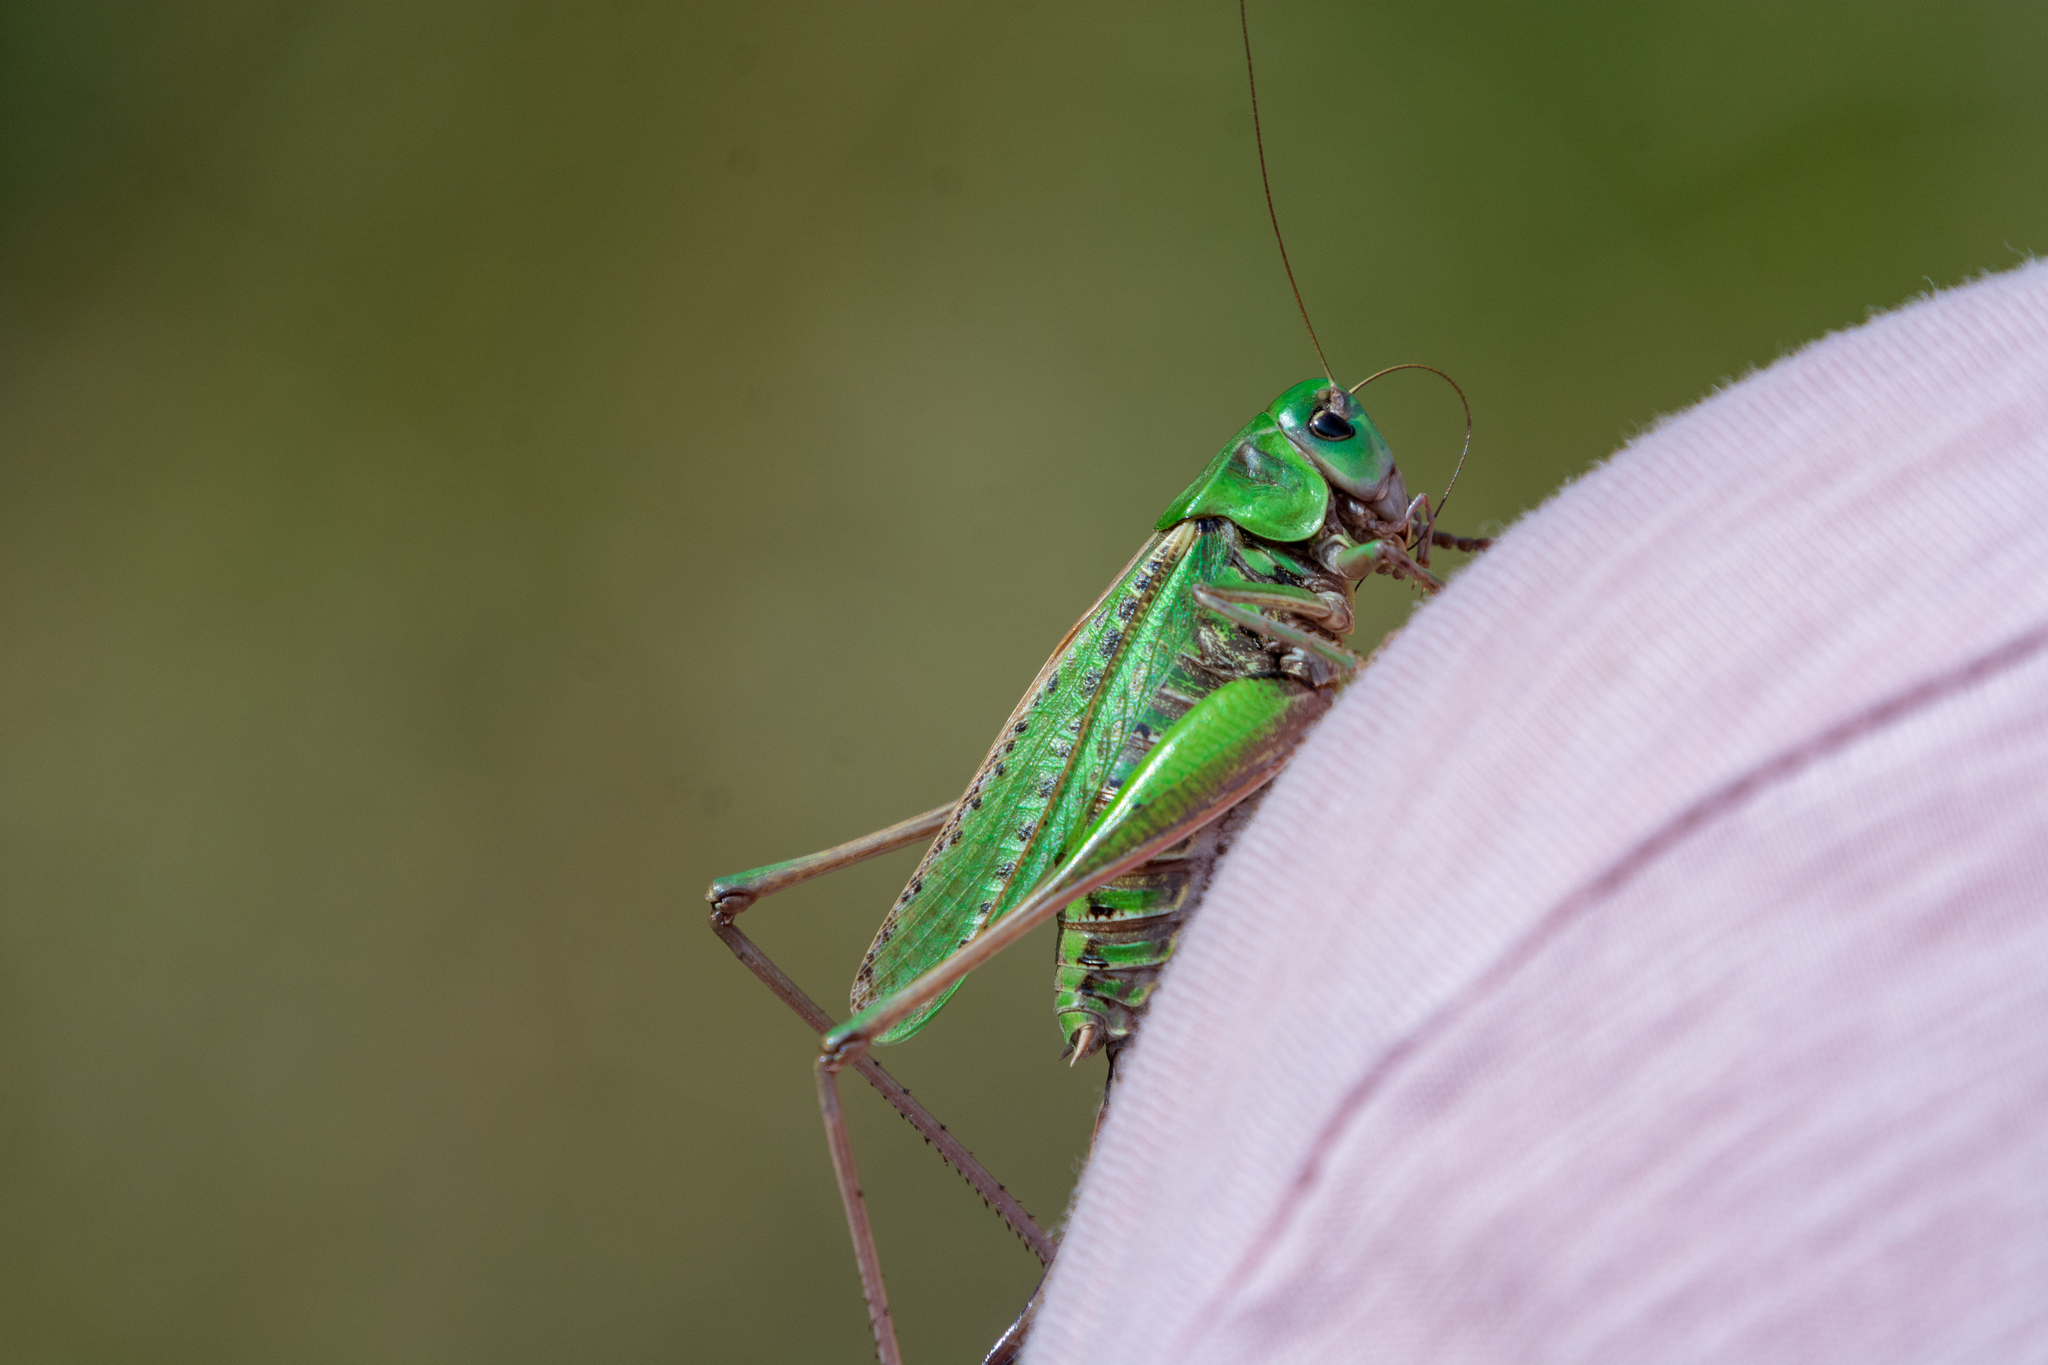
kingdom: Animalia
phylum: Arthropoda
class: Insecta
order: Orthoptera
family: Tettigoniidae
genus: Decticus
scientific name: Decticus verrucivorus
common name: Wart-biter
